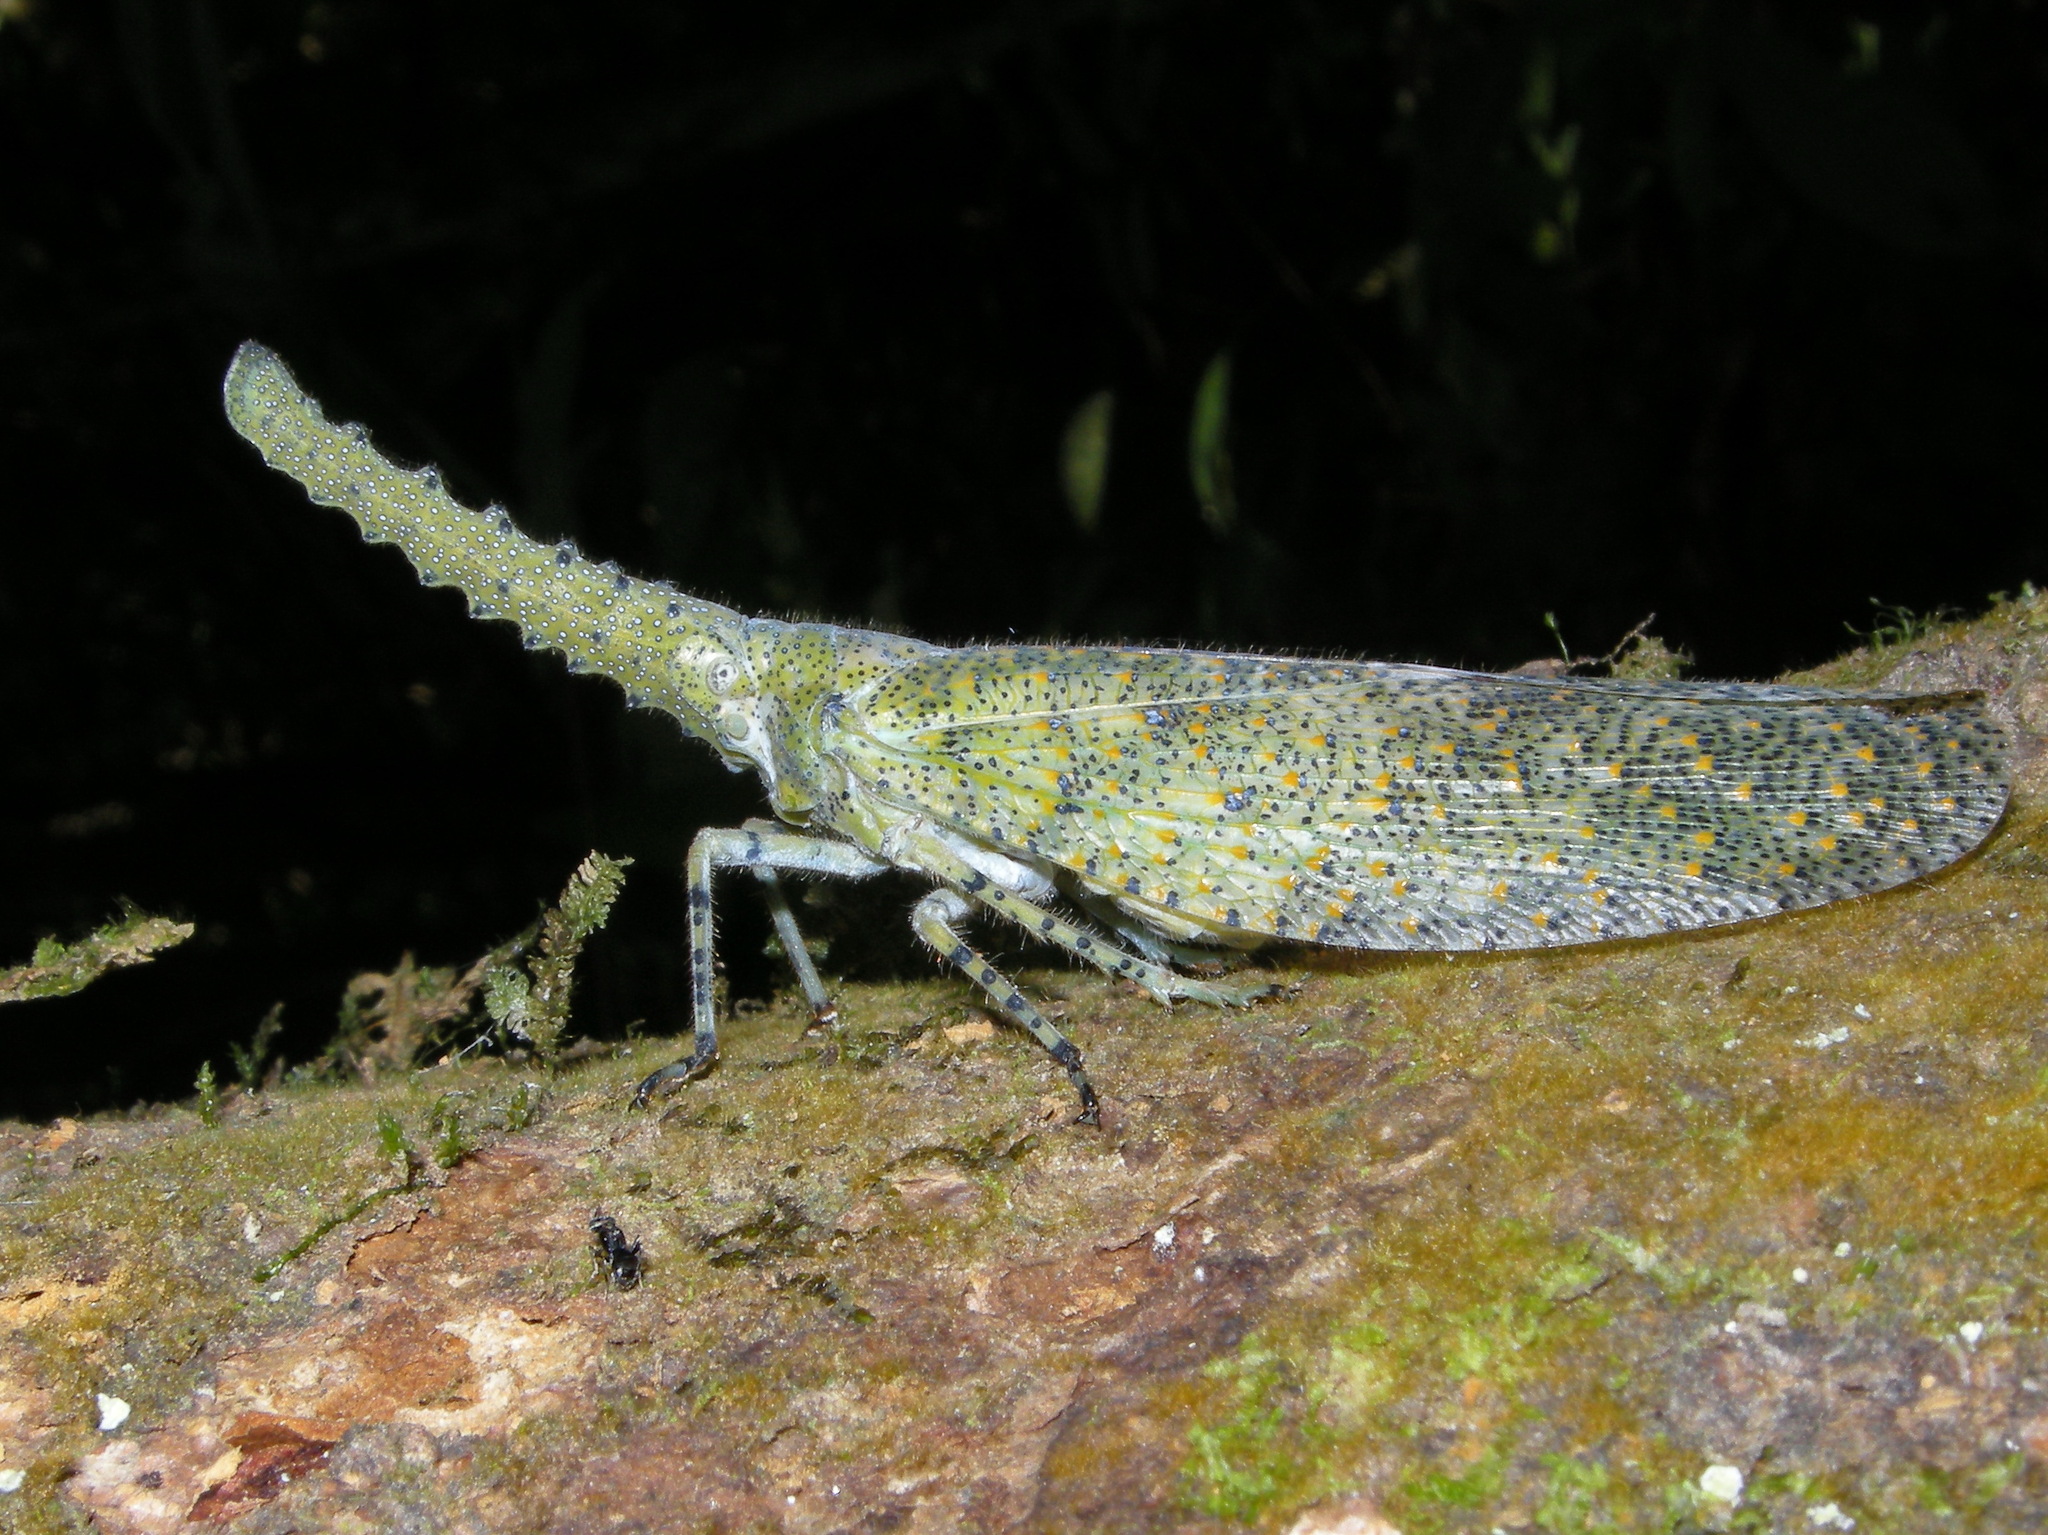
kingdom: Animalia
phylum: Arthropoda
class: Insecta
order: Hemiptera
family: Fulgoridae
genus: Zanna
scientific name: Zanna nobilis
